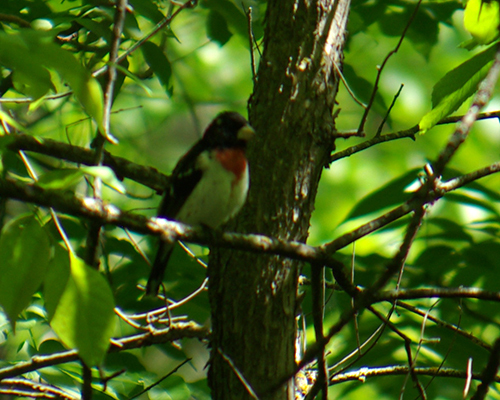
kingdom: Animalia
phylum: Chordata
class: Aves
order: Passeriformes
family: Cardinalidae
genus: Pheucticus
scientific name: Pheucticus ludovicianus
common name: Rose-breasted grosbeak
